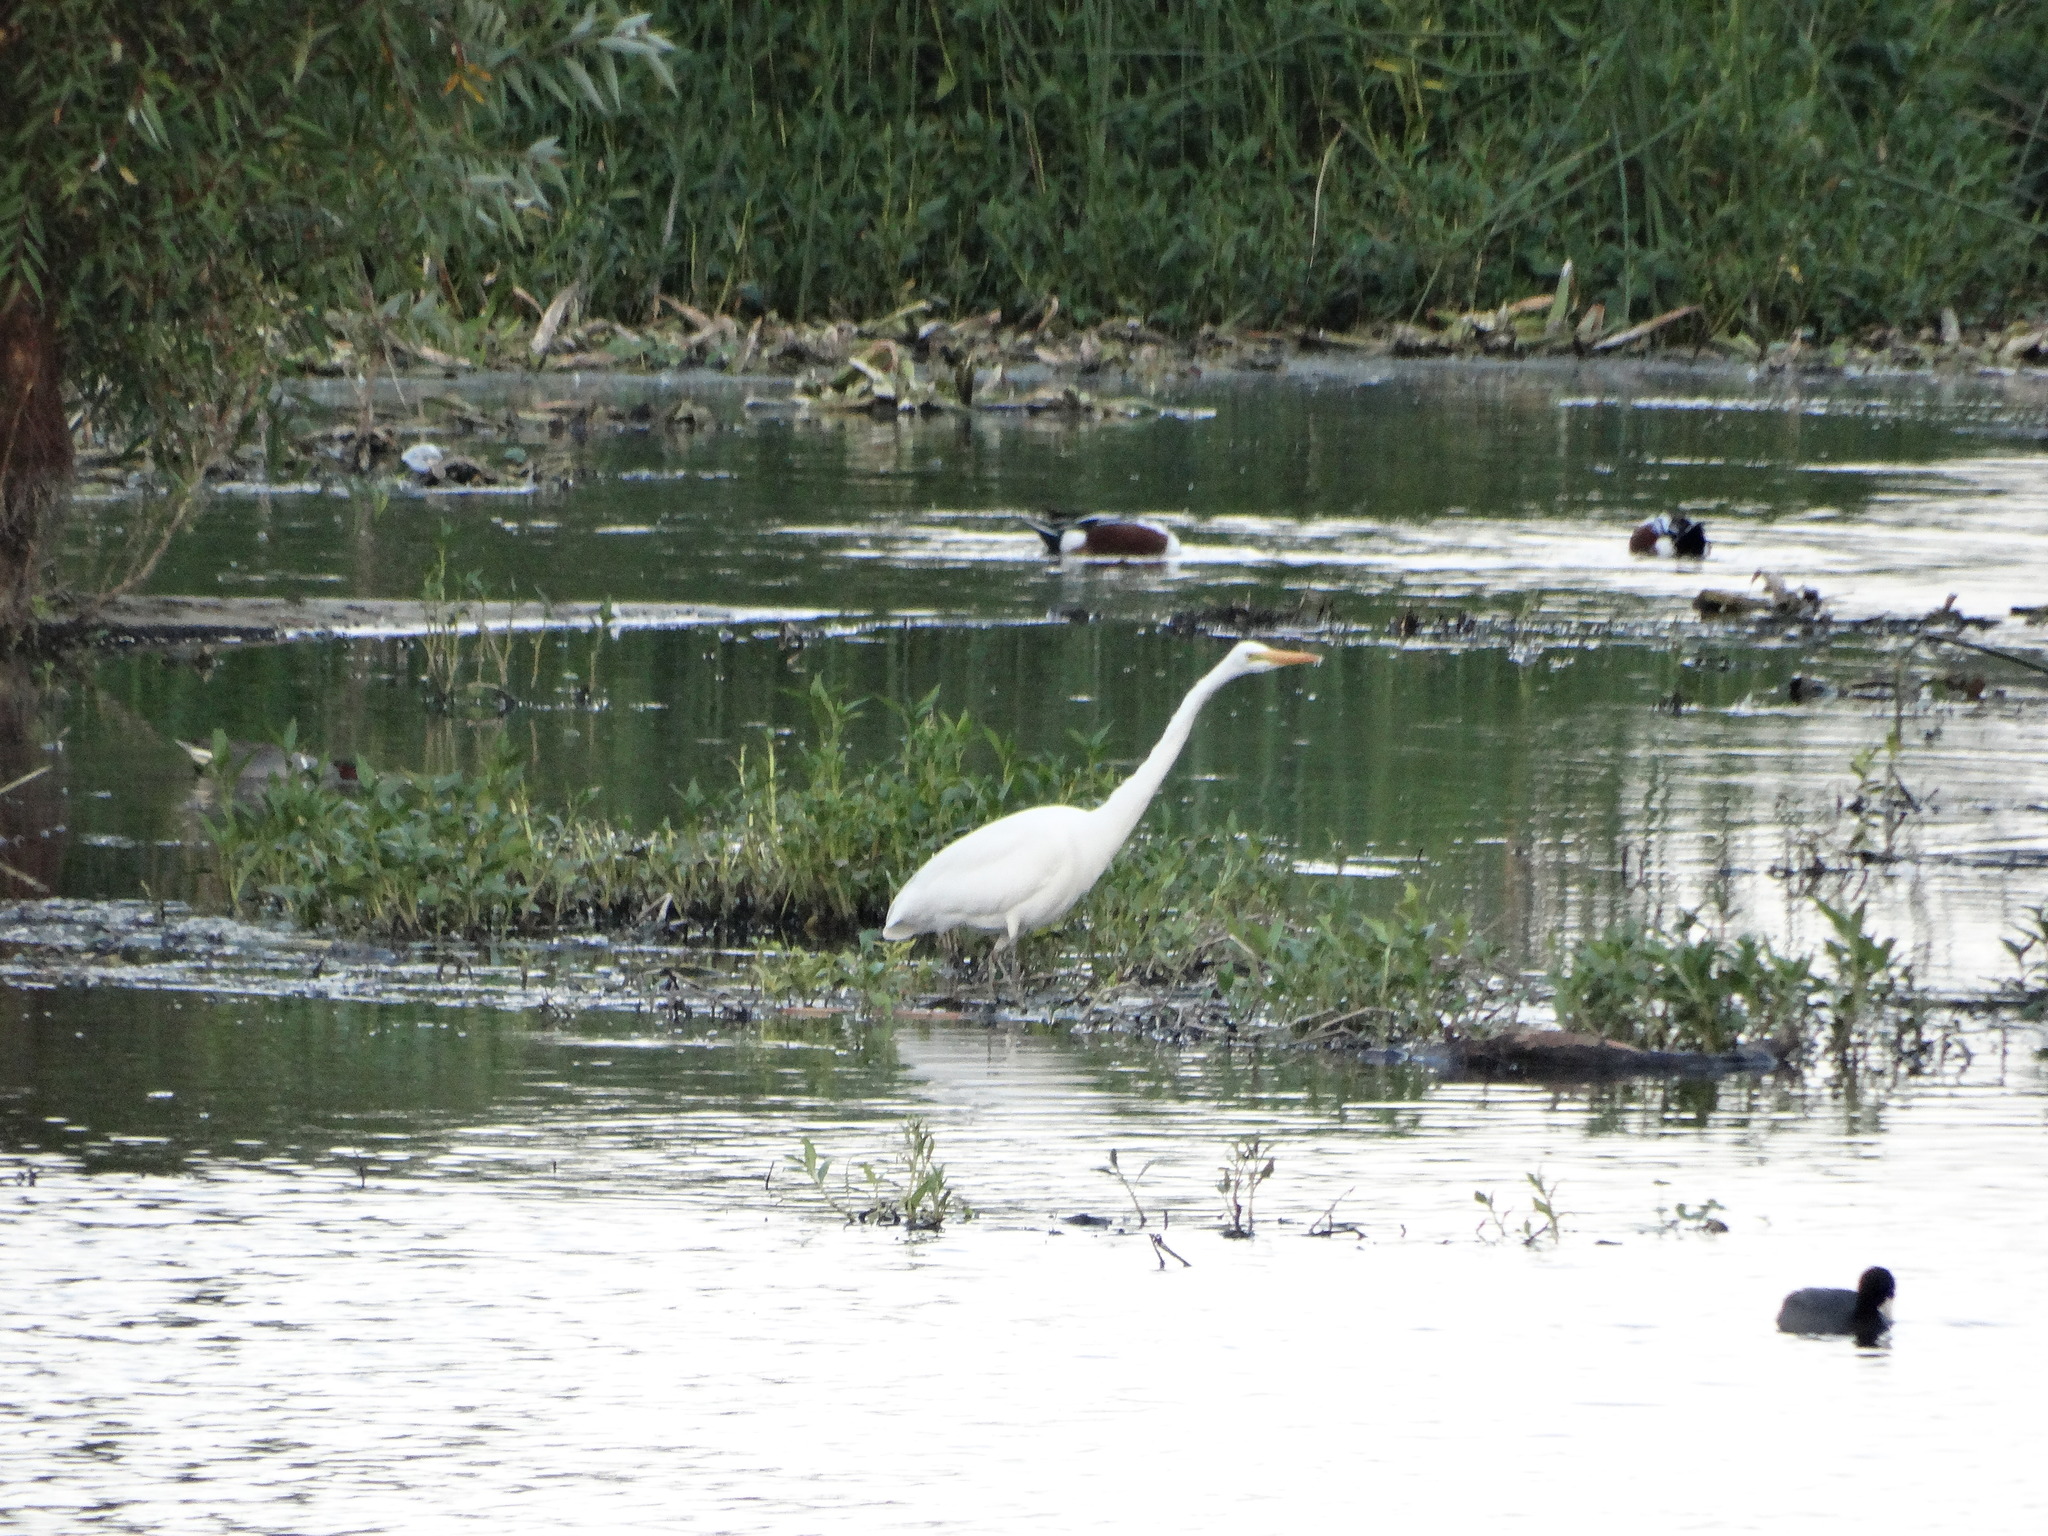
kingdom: Animalia
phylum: Chordata
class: Aves
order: Pelecaniformes
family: Ardeidae
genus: Ardea
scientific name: Ardea alba
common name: Great egret
